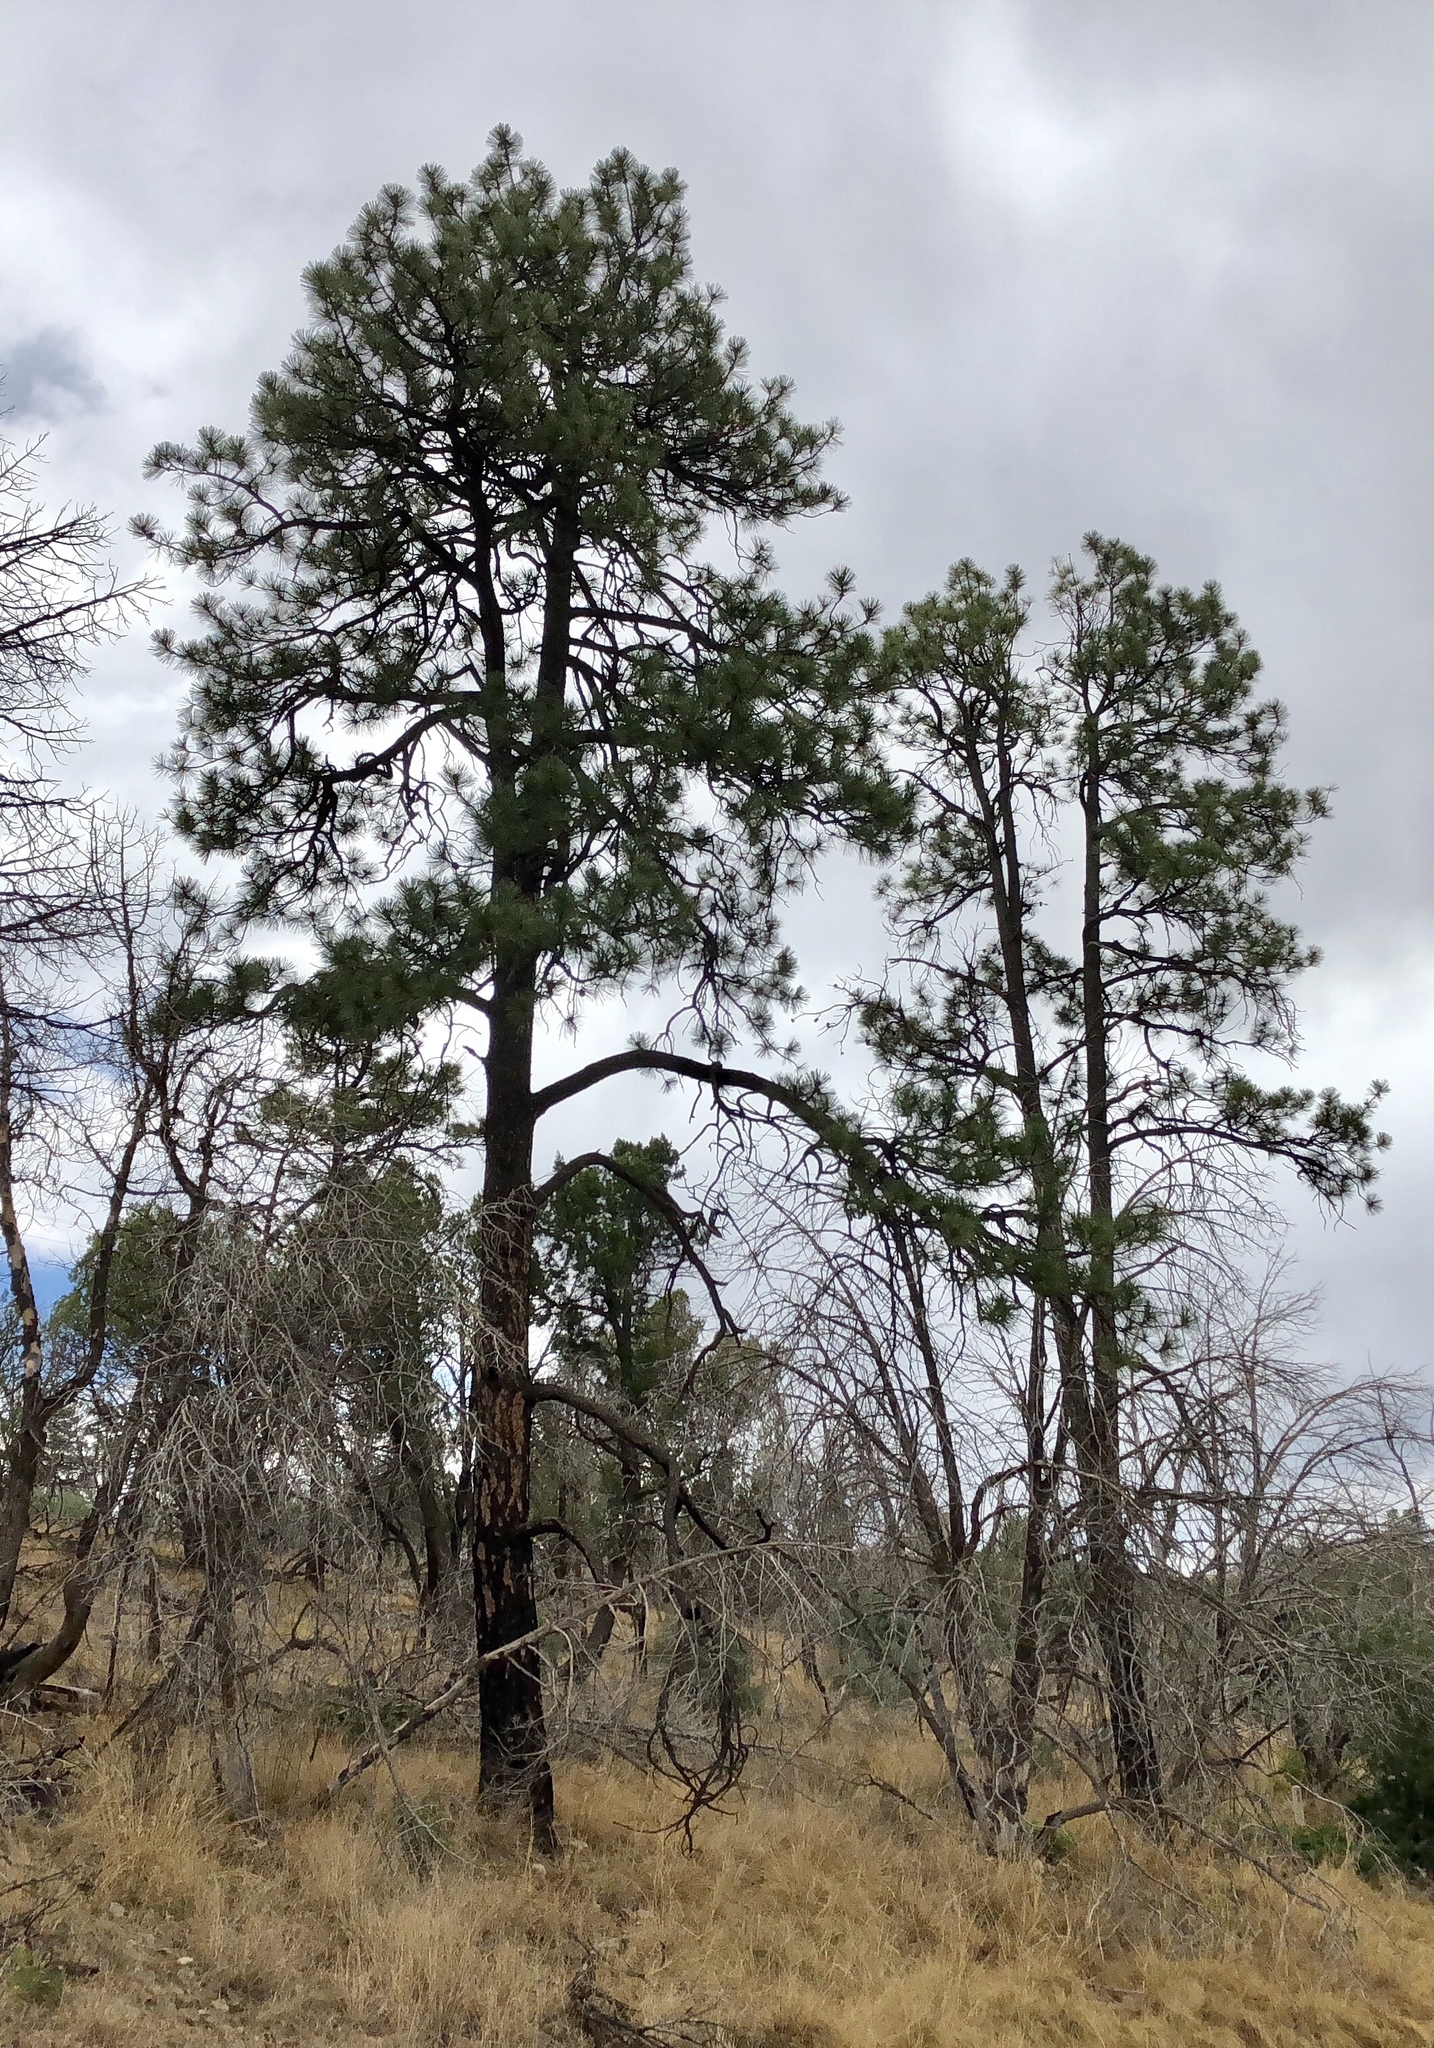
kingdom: Plantae
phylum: Tracheophyta
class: Pinopsida
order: Pinales
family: Pinaceae
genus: Pinus
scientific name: Pinus ponderosa
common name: Western yellow-pine
